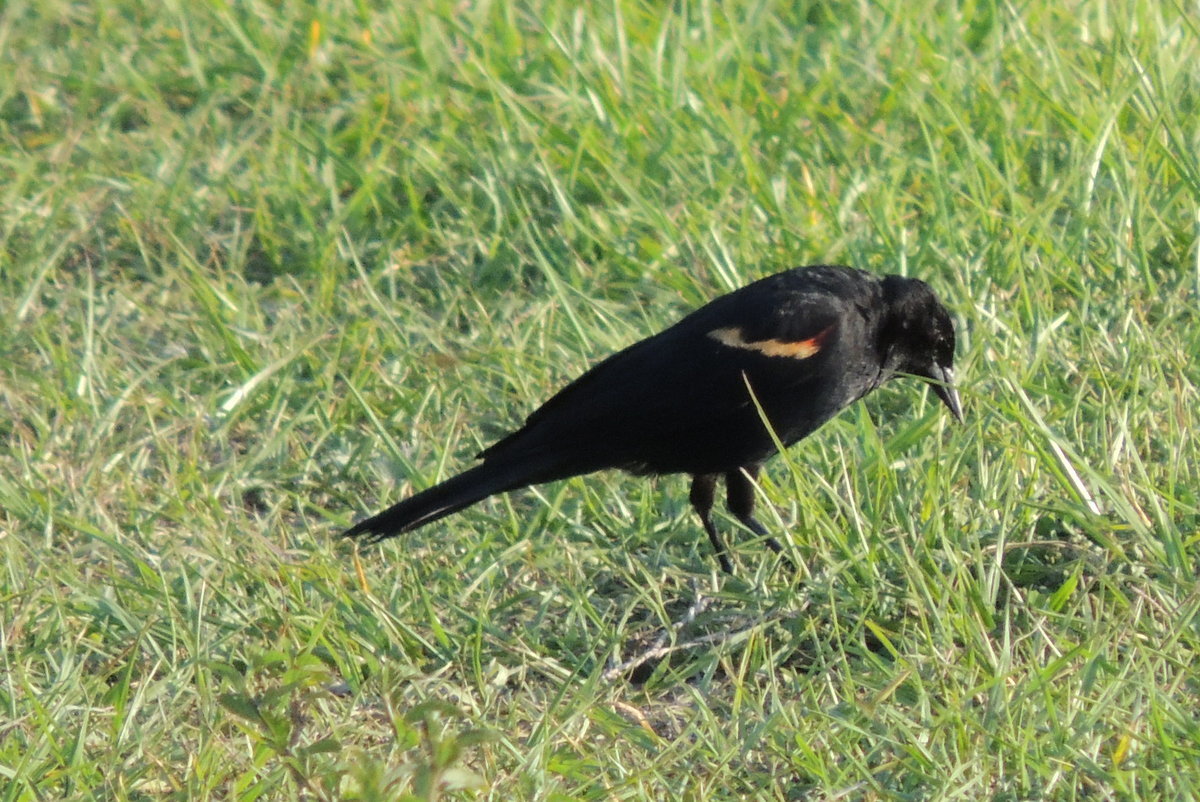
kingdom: Animalia
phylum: Chordata
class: Aves
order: Passeriformes
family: Icteridae
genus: Agelaius
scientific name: Agelaius phoeniceus
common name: Red-winged blackbird
